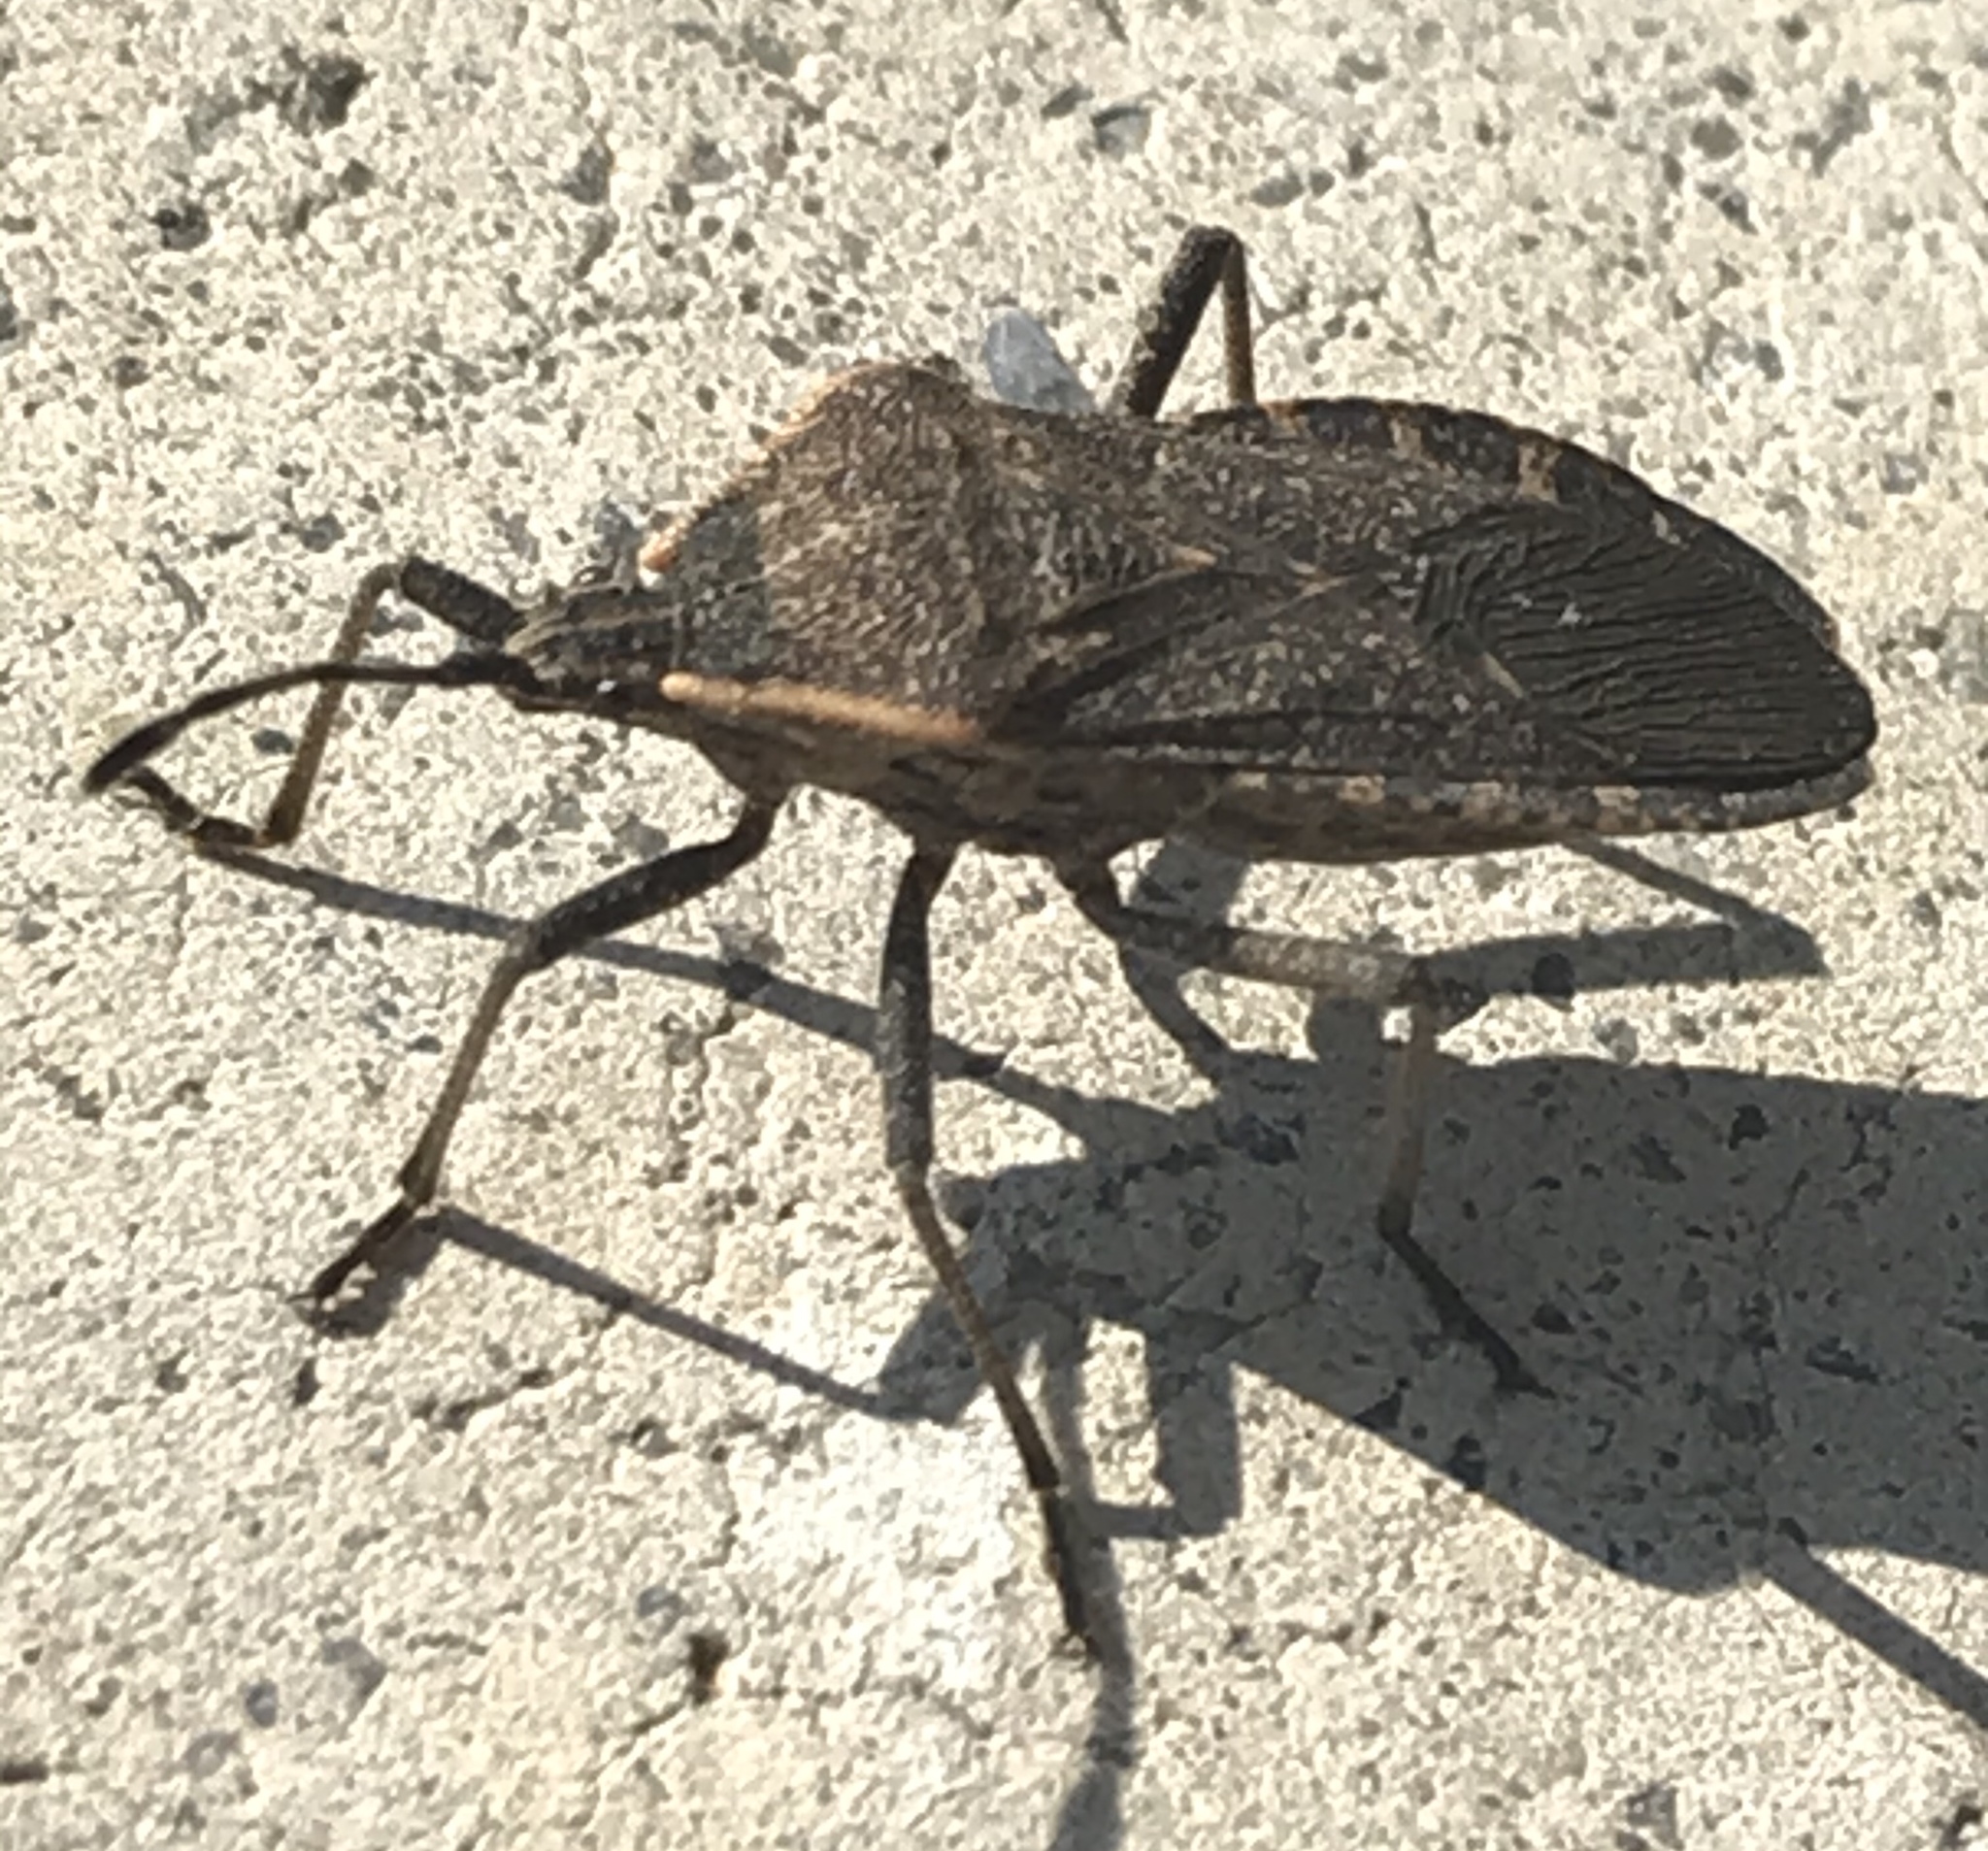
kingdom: Animalia
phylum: Arthropoda
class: Insecta
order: Hemiptera
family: Coreidae
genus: Anasa
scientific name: Anasa tristis
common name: Squash bug
